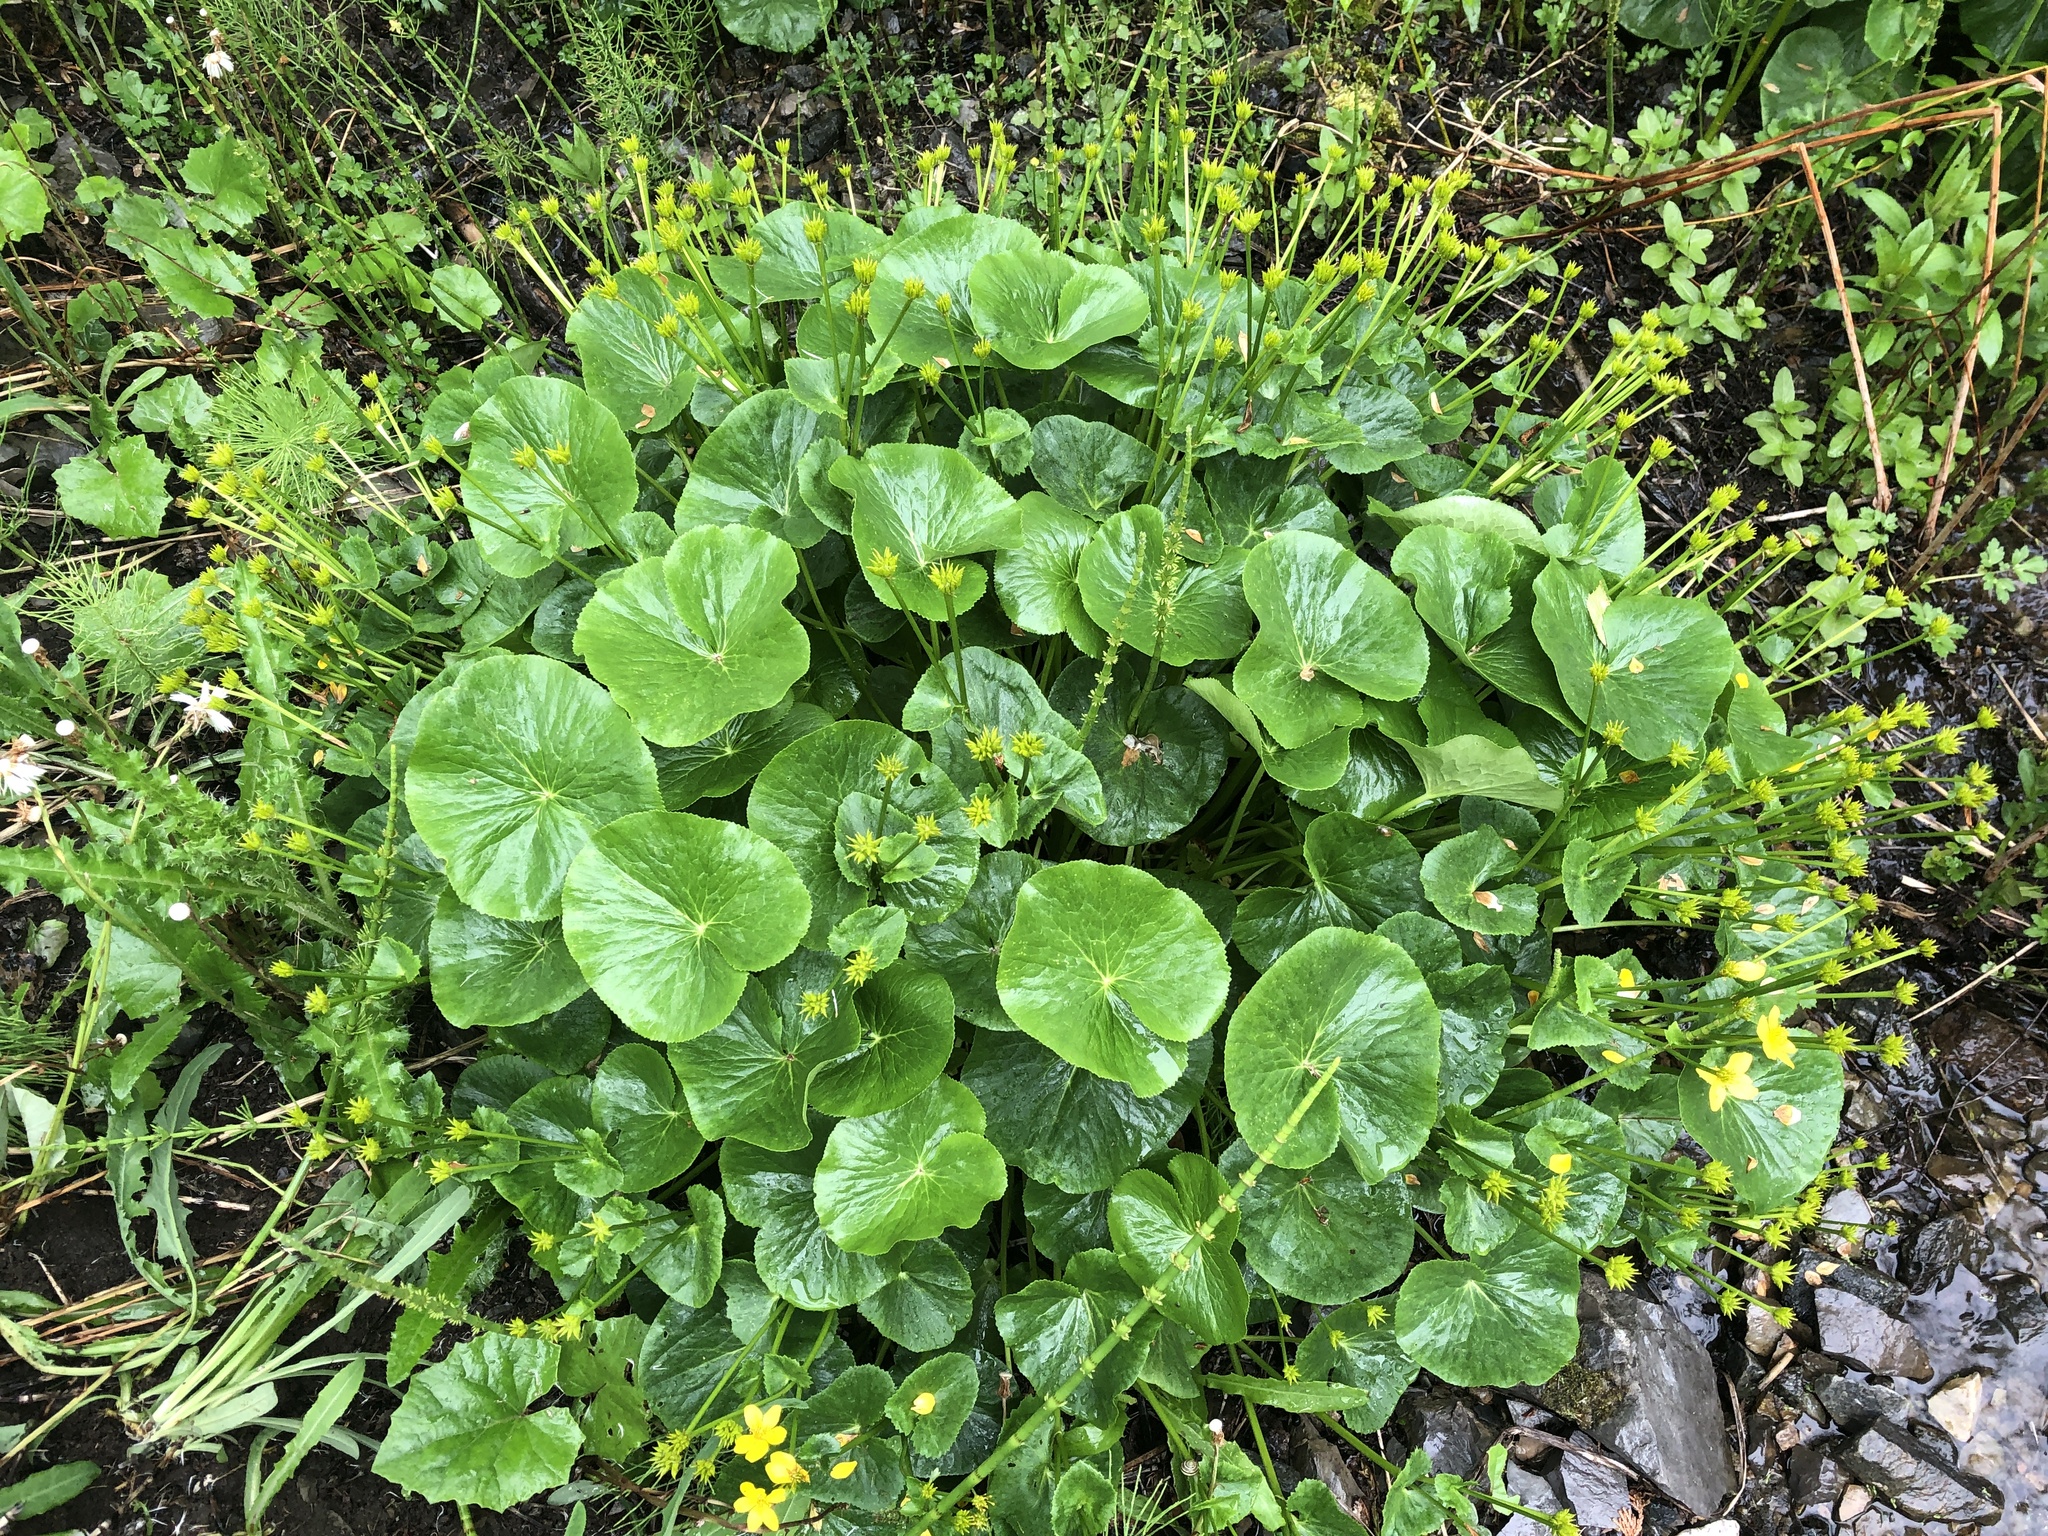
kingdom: Plantae
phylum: Tracheophyta
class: Magnoliopsida
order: Ranunculales
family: Ranunculaceae
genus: Caltha
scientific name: Caltha palustris
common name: Marsh marigold
